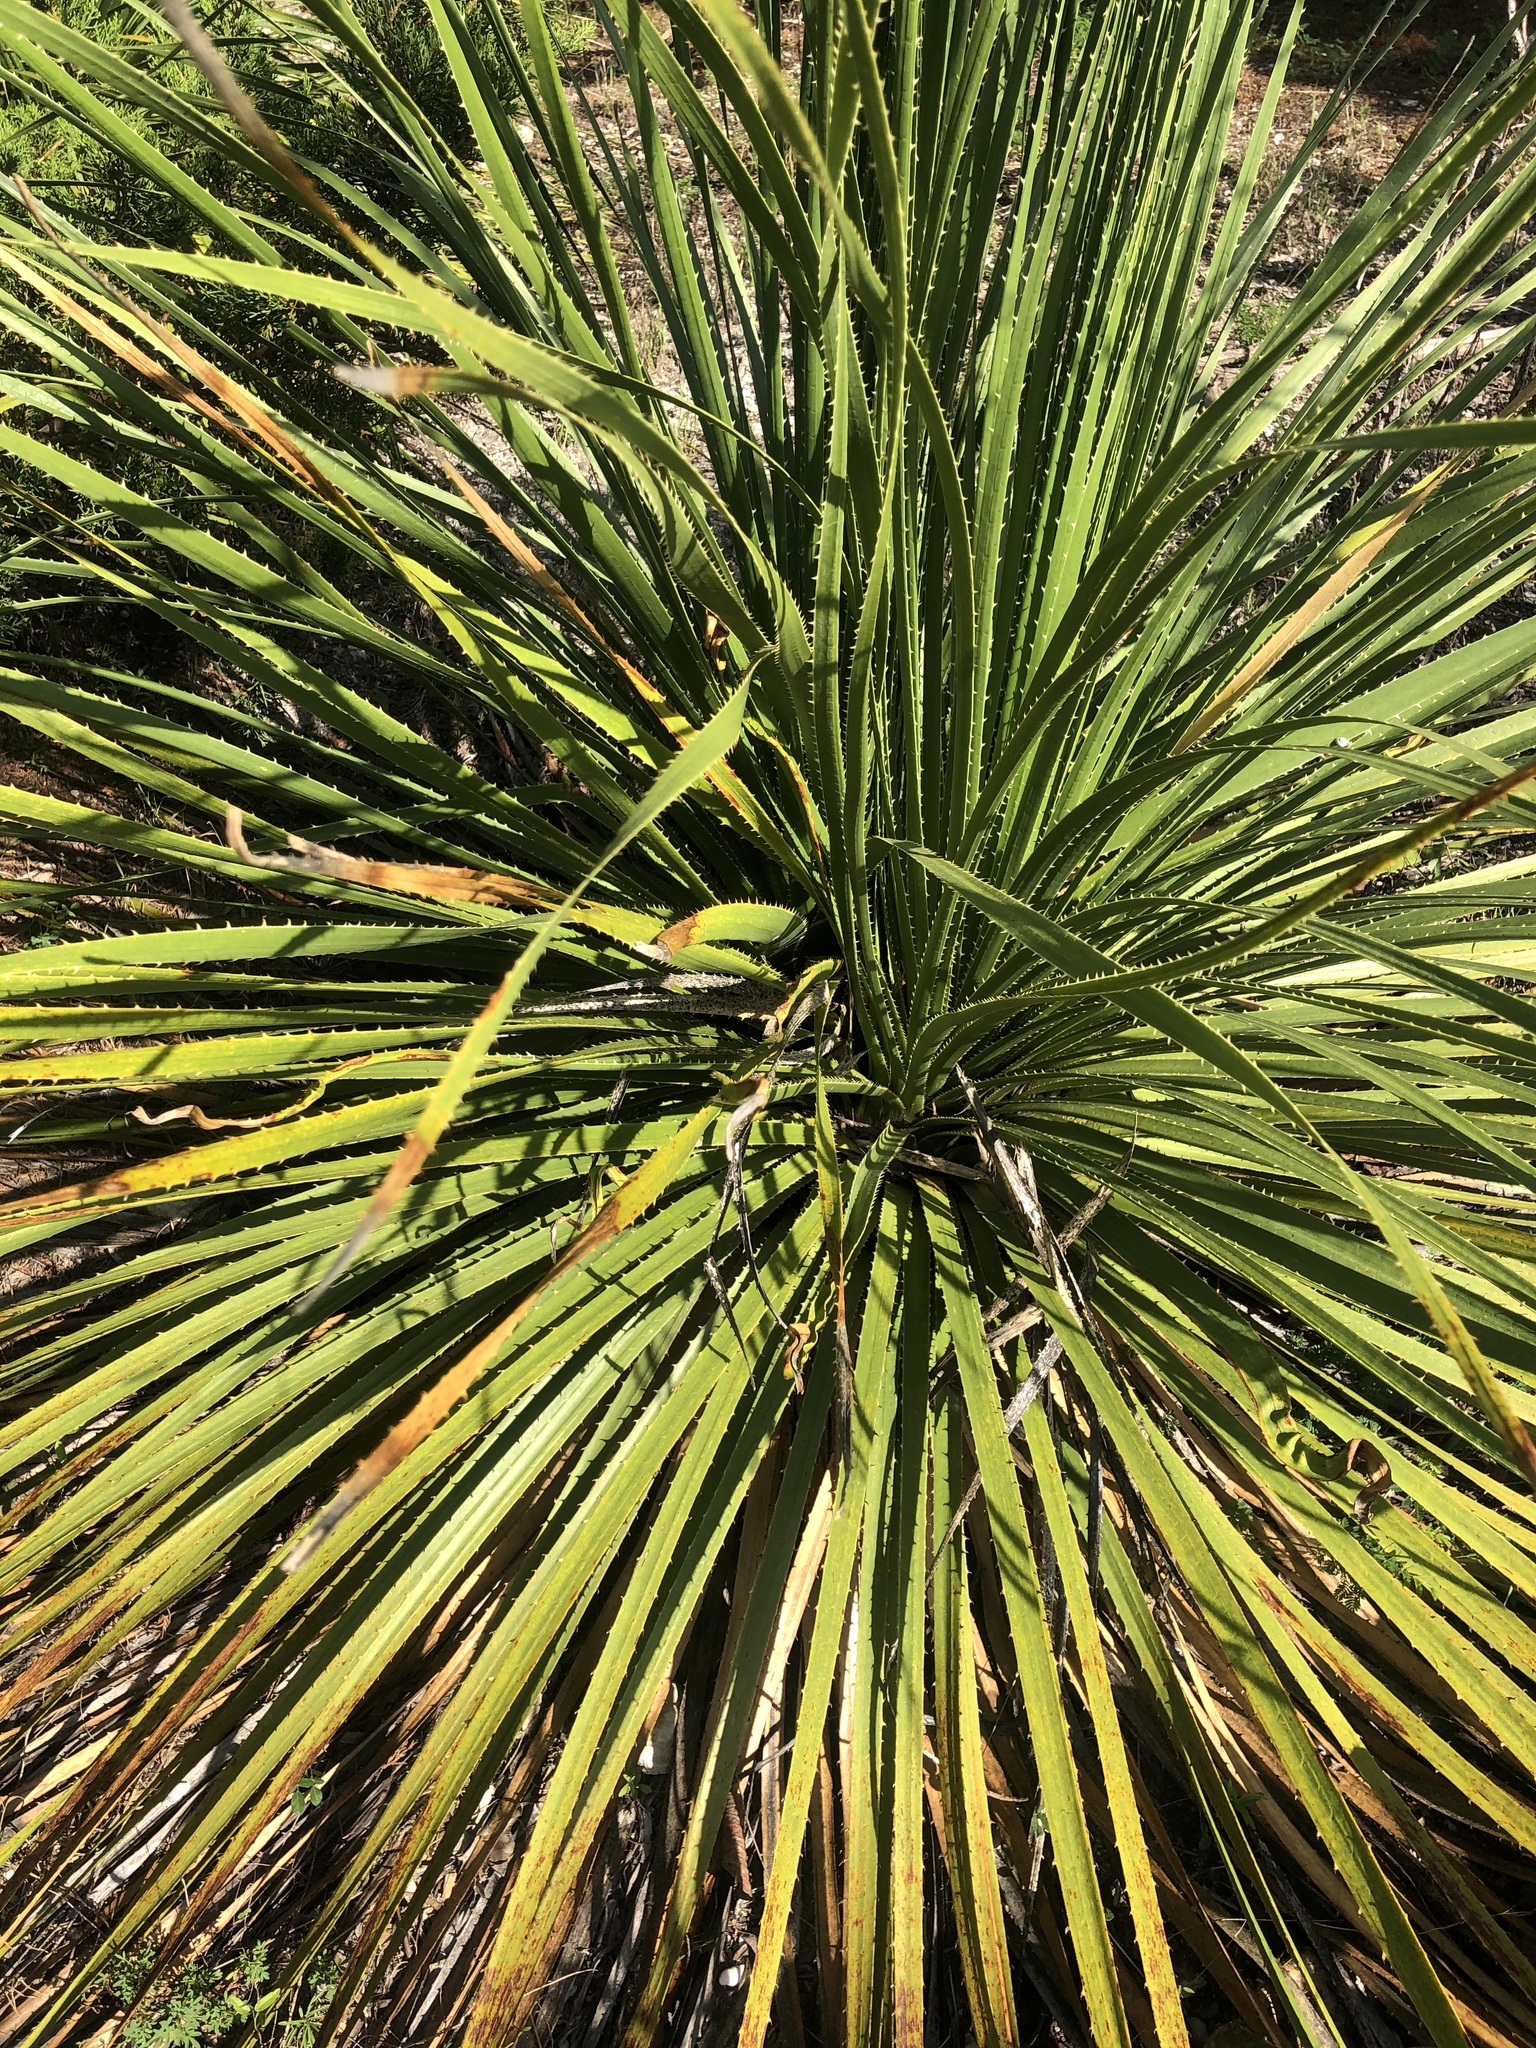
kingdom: Plantae
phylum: Tracheophyta
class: Liliopsida
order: Asparagales
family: Asparagaceae
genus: Dasylirion
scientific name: Dasylirion texanum
